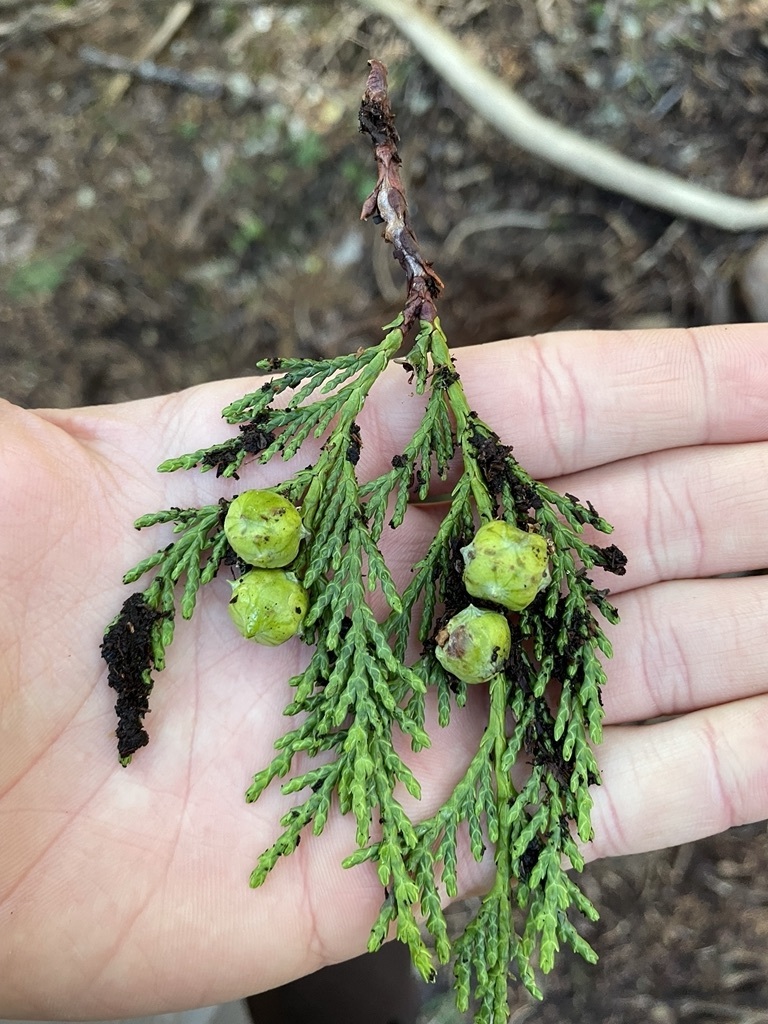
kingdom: Plantae
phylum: Tracheophyta
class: Pinopsida
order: Pinales
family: Cupressaceae
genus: Xanthocyparis
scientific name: Xanthocyparis nootkatensis
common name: Nootka cypress
